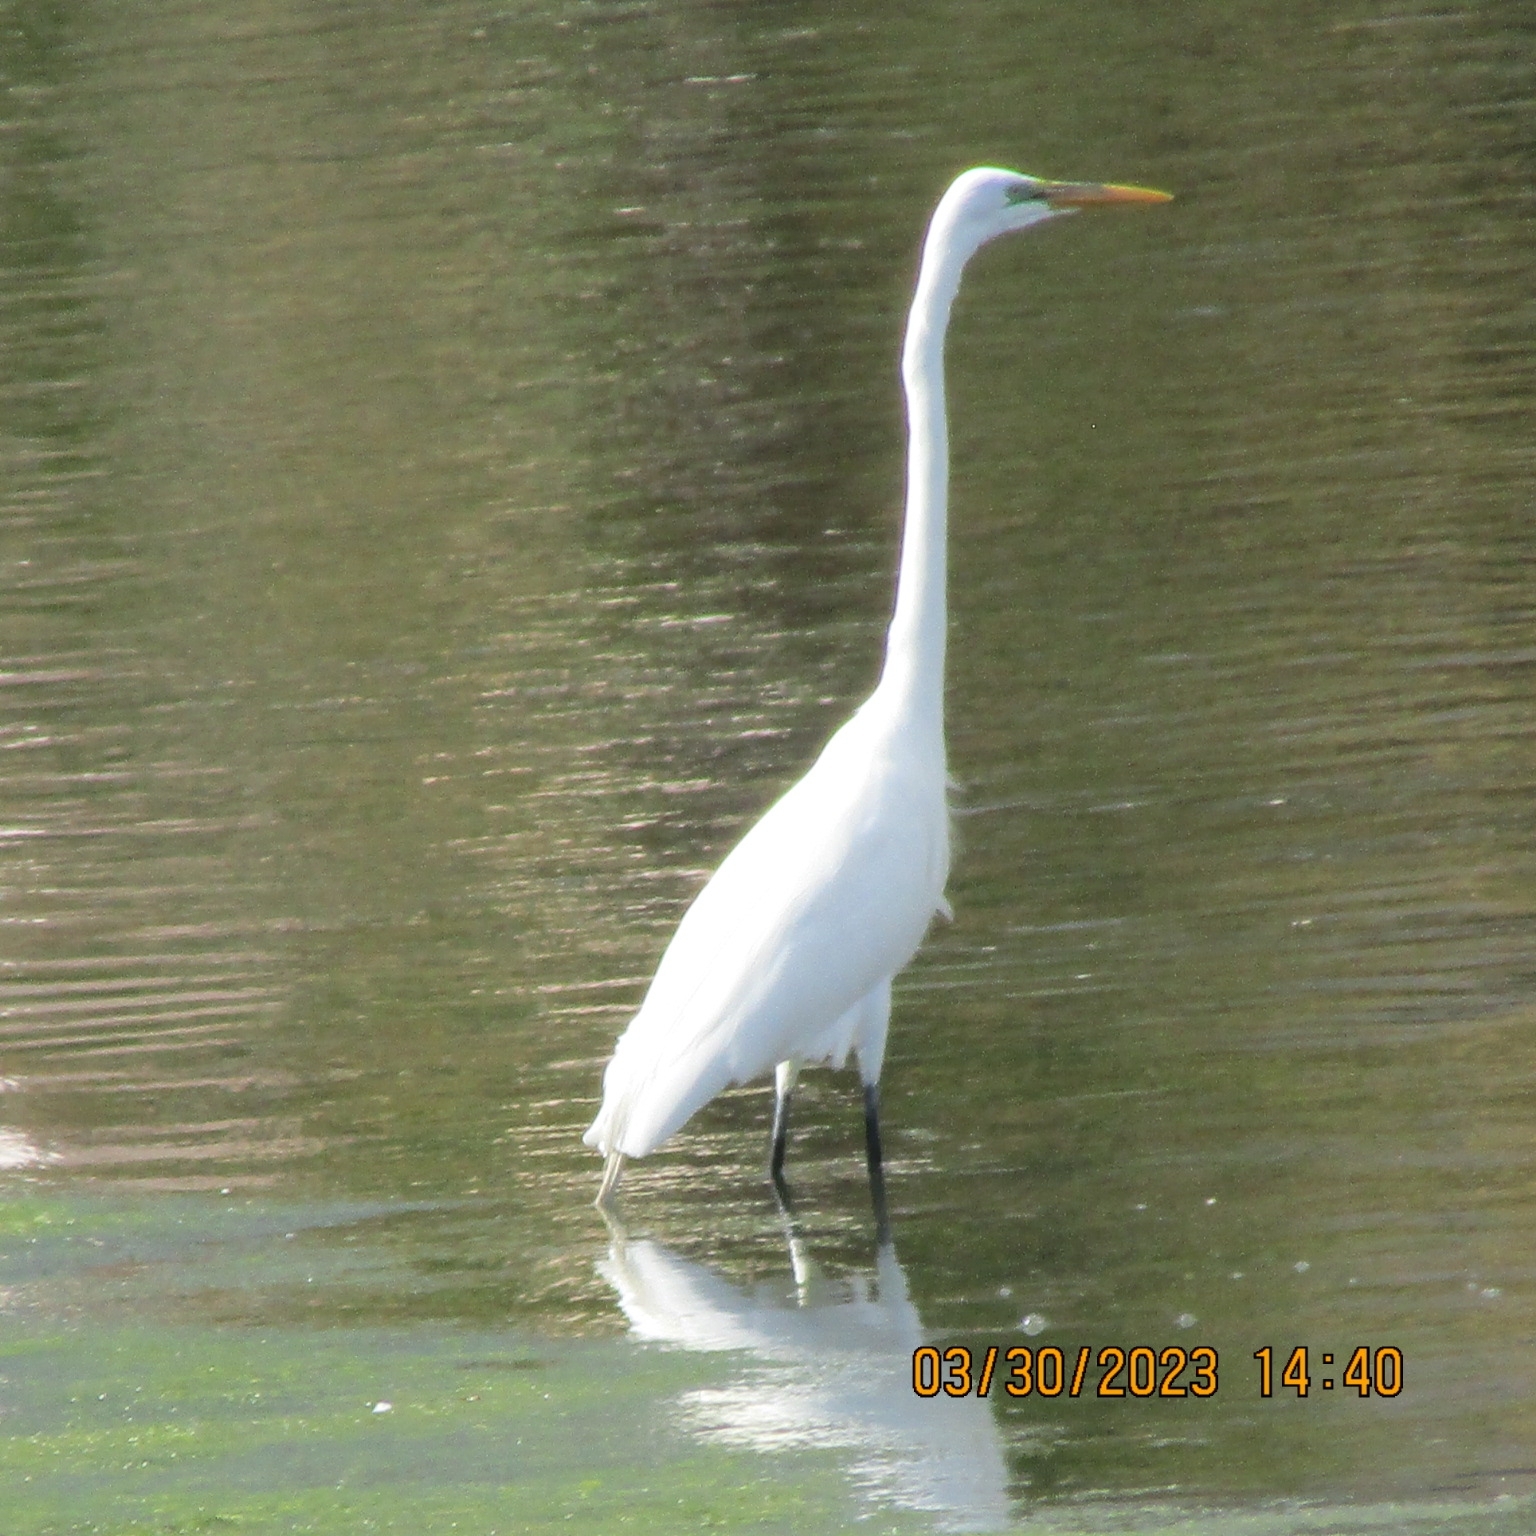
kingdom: Animalia
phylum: Chordata
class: Aves
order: Pelecaniformes
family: Ardeidae
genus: Ardea
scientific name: Ardea alba
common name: Great egret
